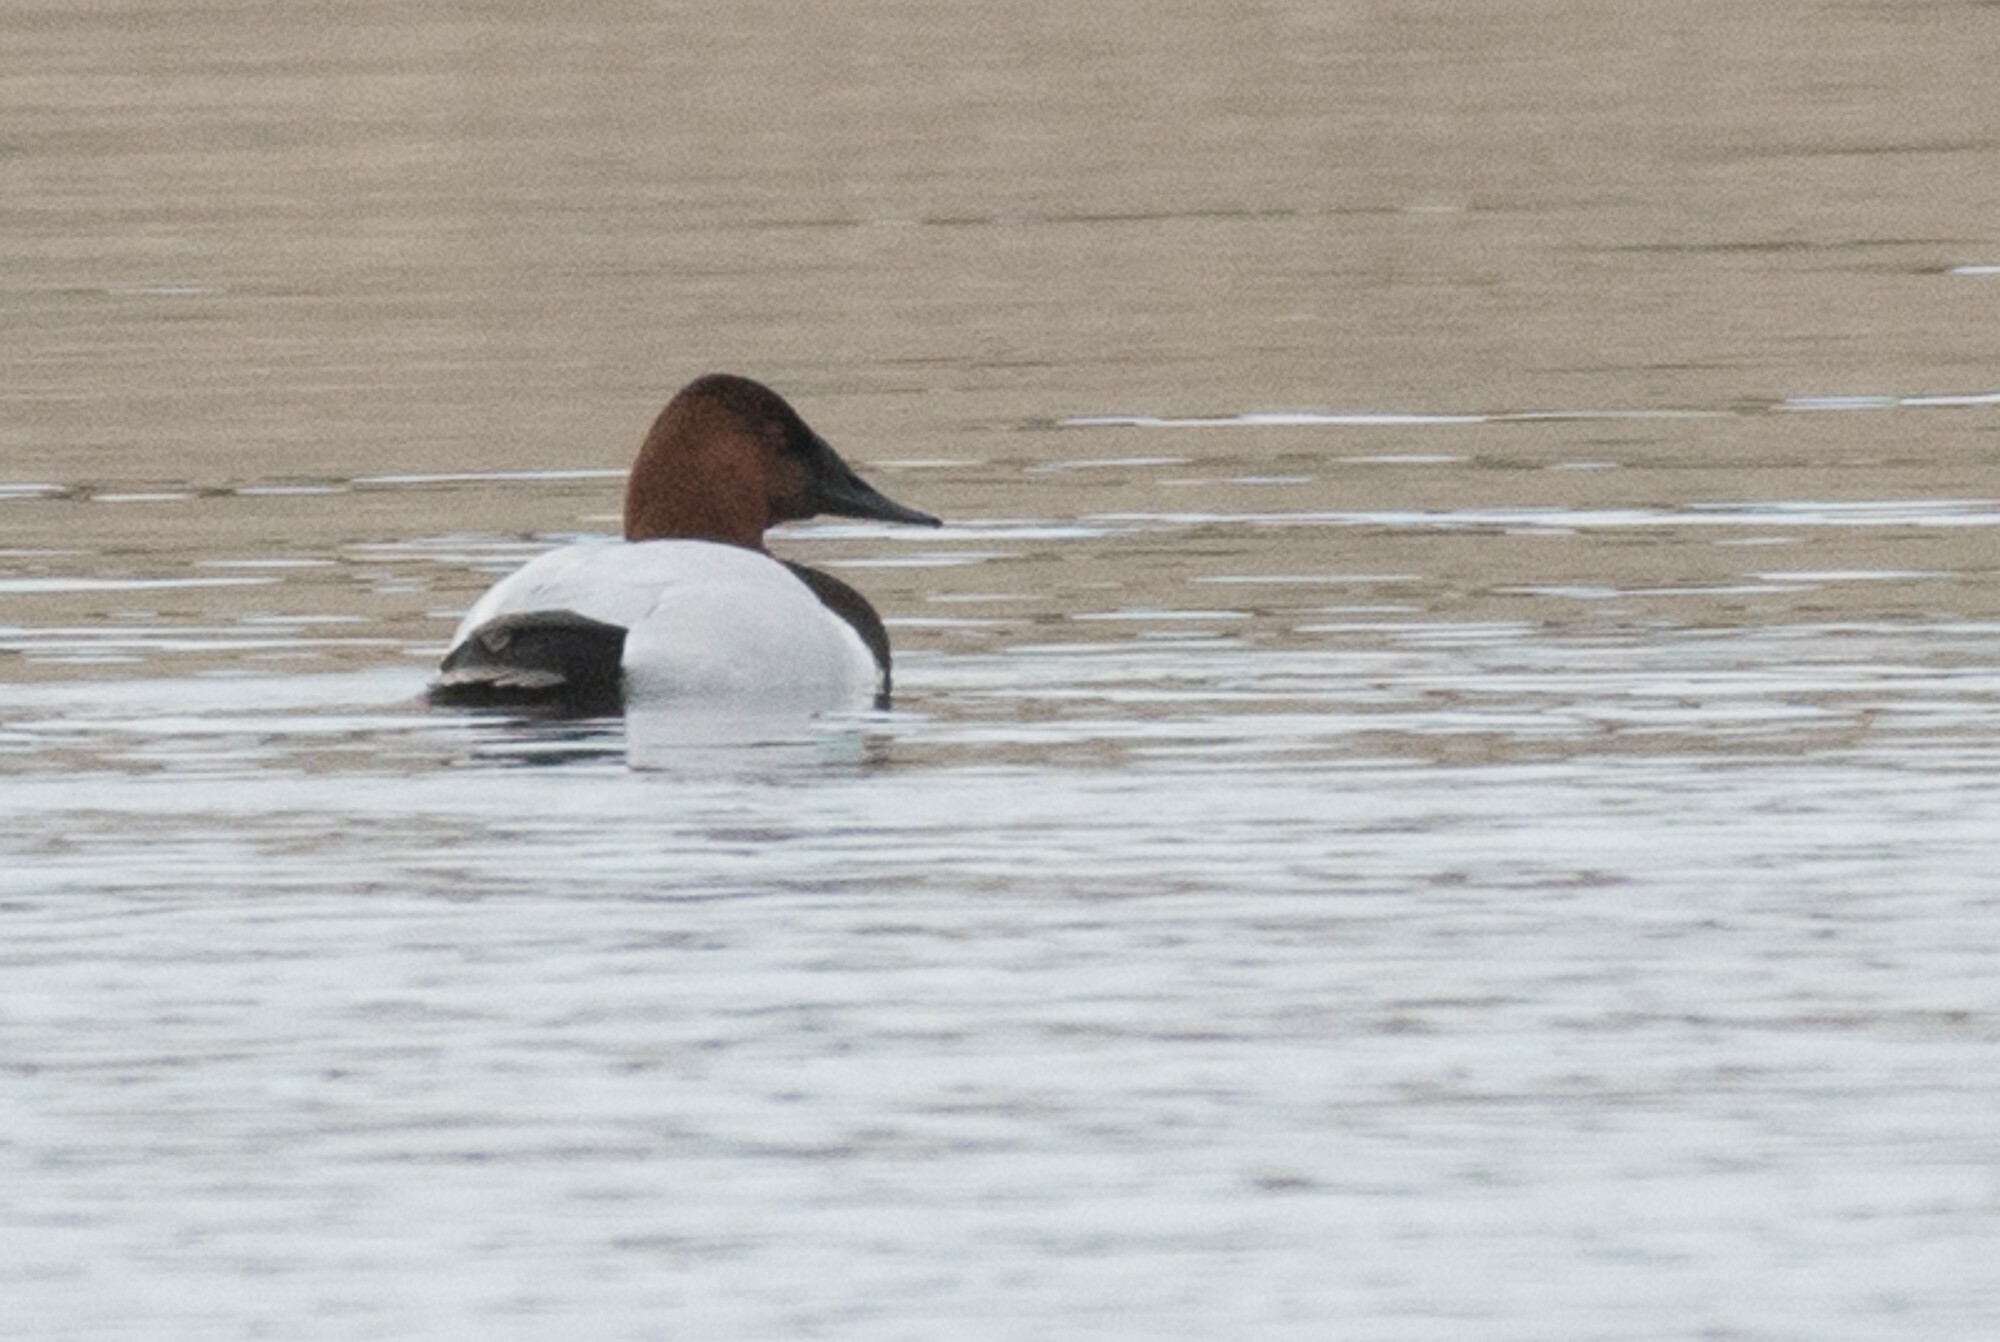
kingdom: Animalia
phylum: Chordata
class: Aves
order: Anseriformes
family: Anatidae
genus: Aythya
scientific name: Aythya valisineria
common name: Canvasback
